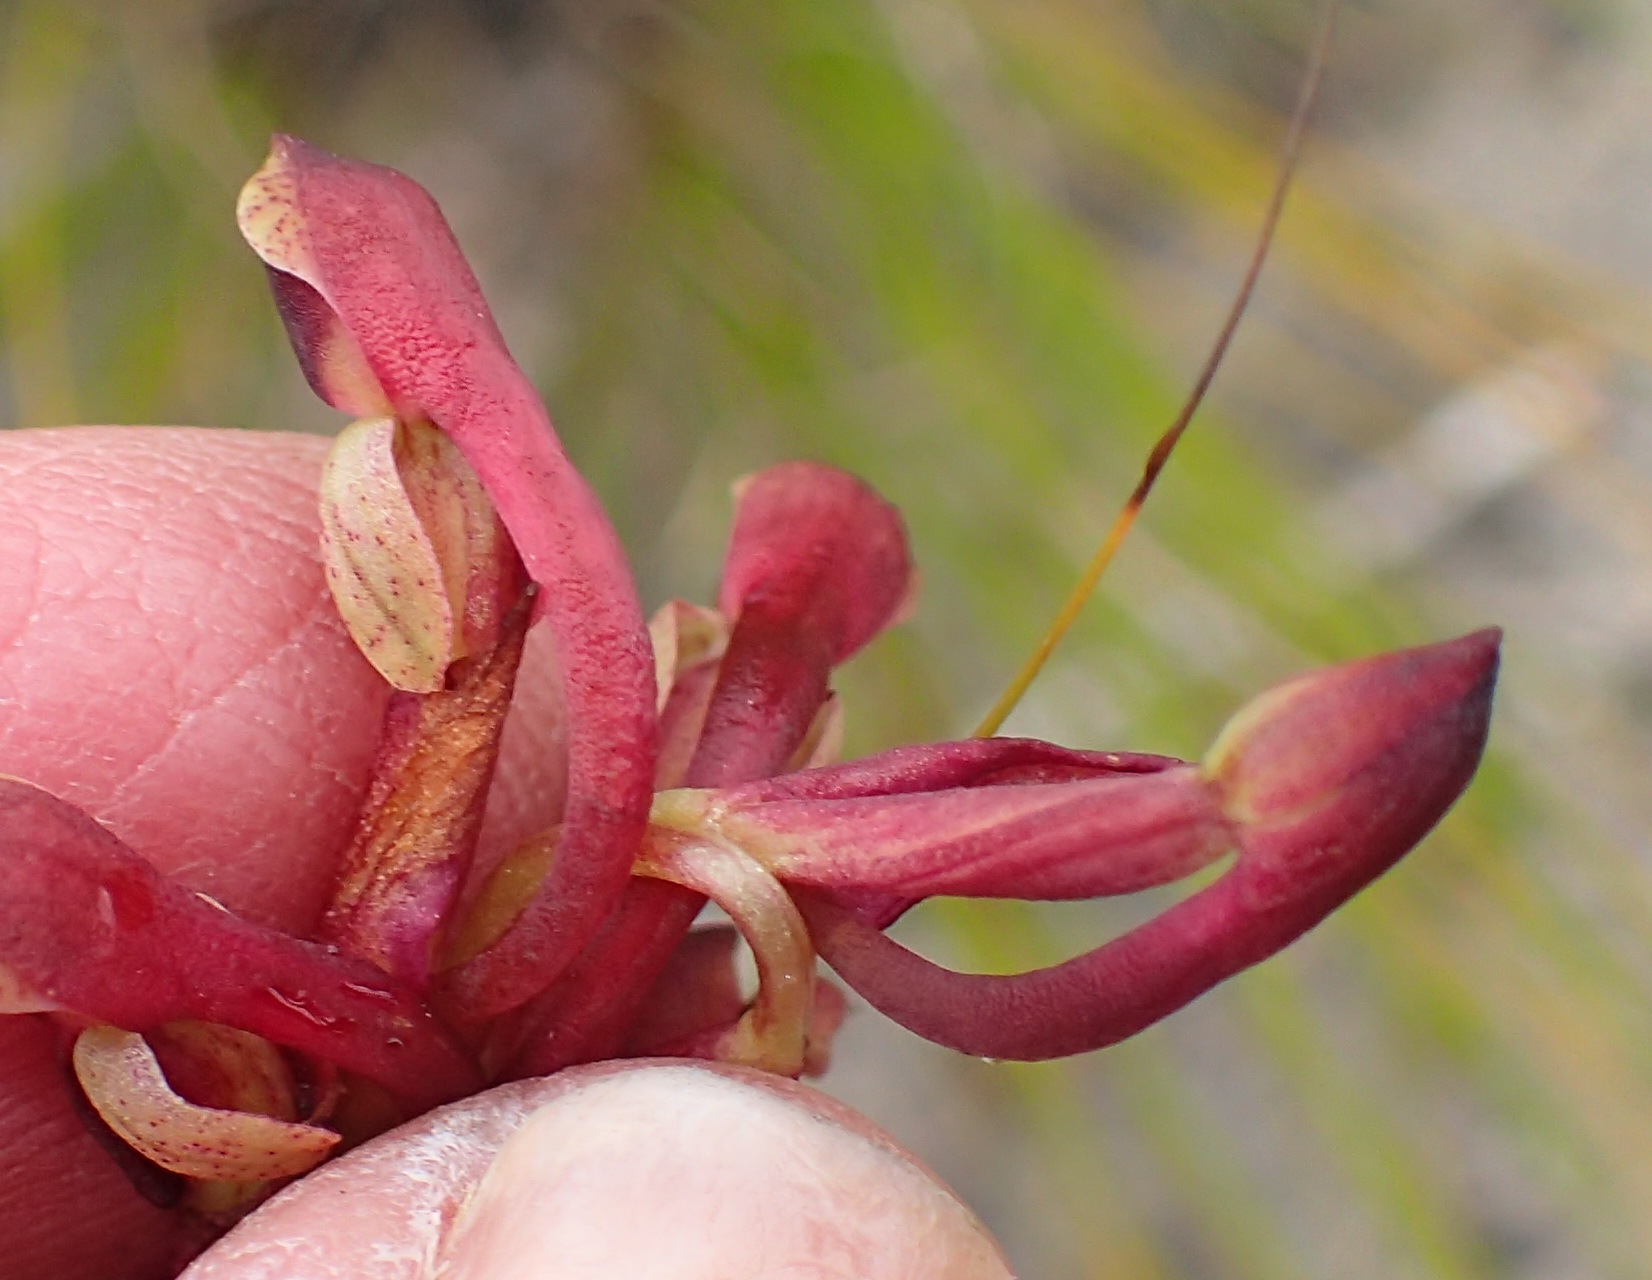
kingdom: Plantae
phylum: Tracheophyta
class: Liliopsida
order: Asparagales
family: Orchidaceae
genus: Disa
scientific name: Disa reticulata
